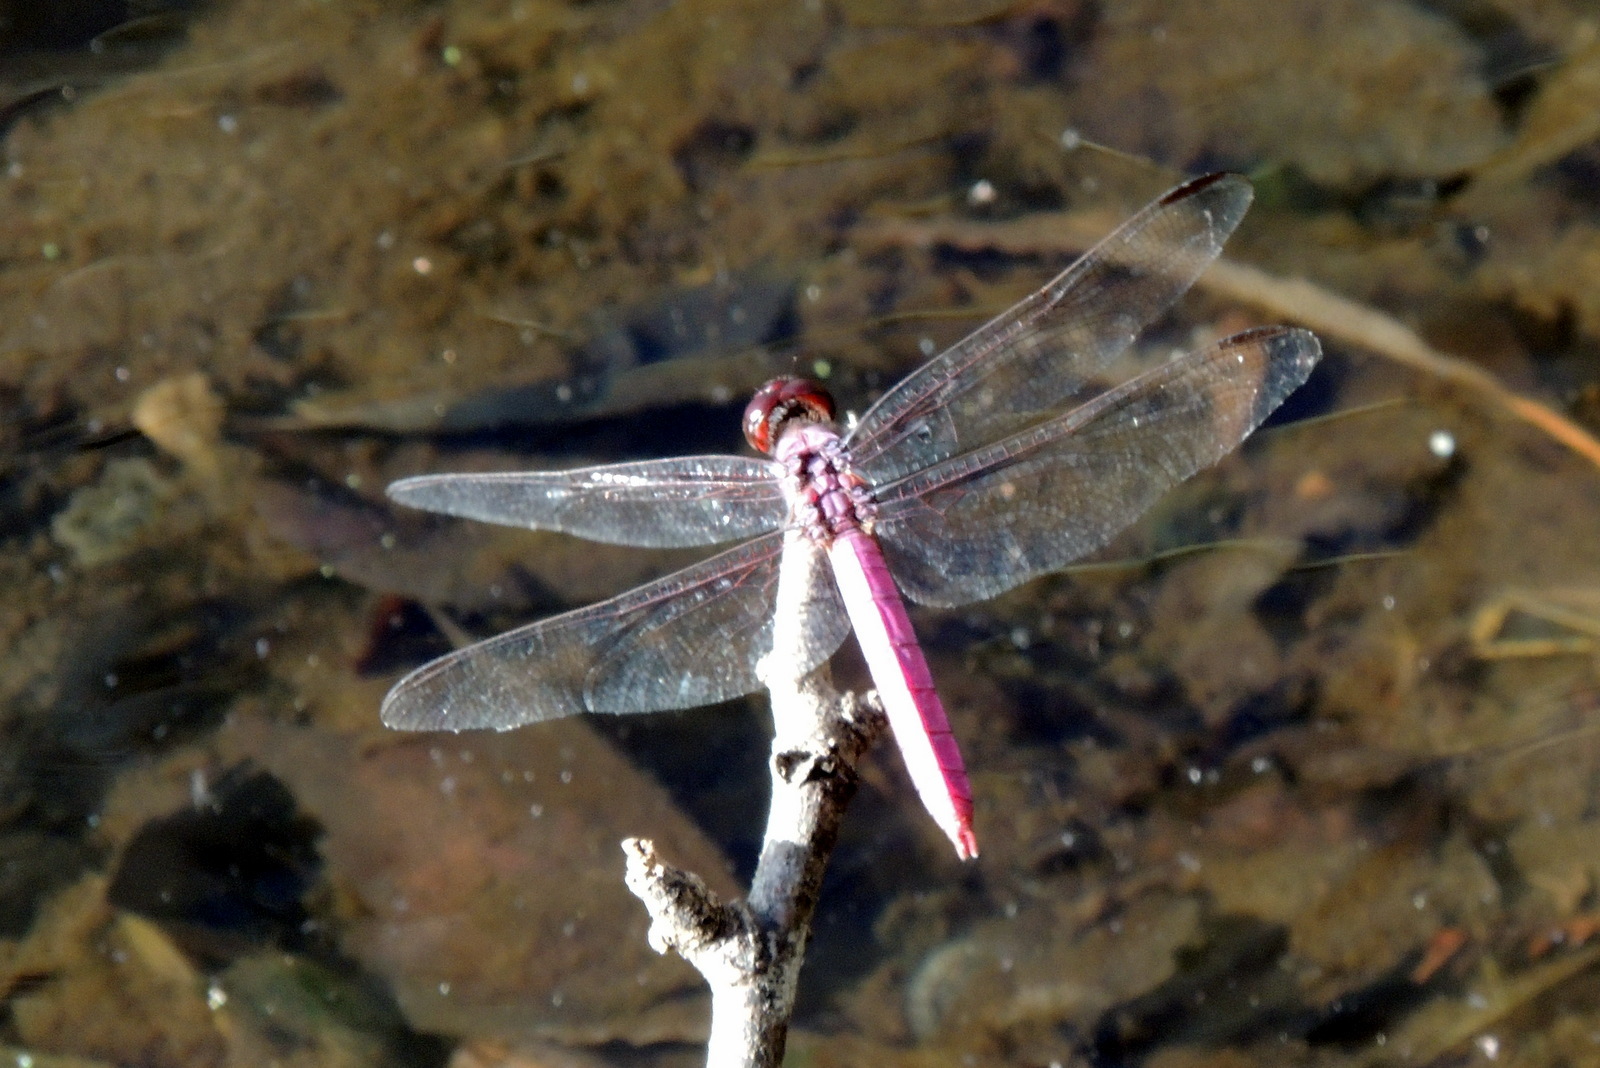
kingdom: Animalia
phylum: Arthropoda
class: Insecta
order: Odonata
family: Libellulidae
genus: Orthemis
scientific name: Orthemis ferruginea
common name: Roseate skimmer
